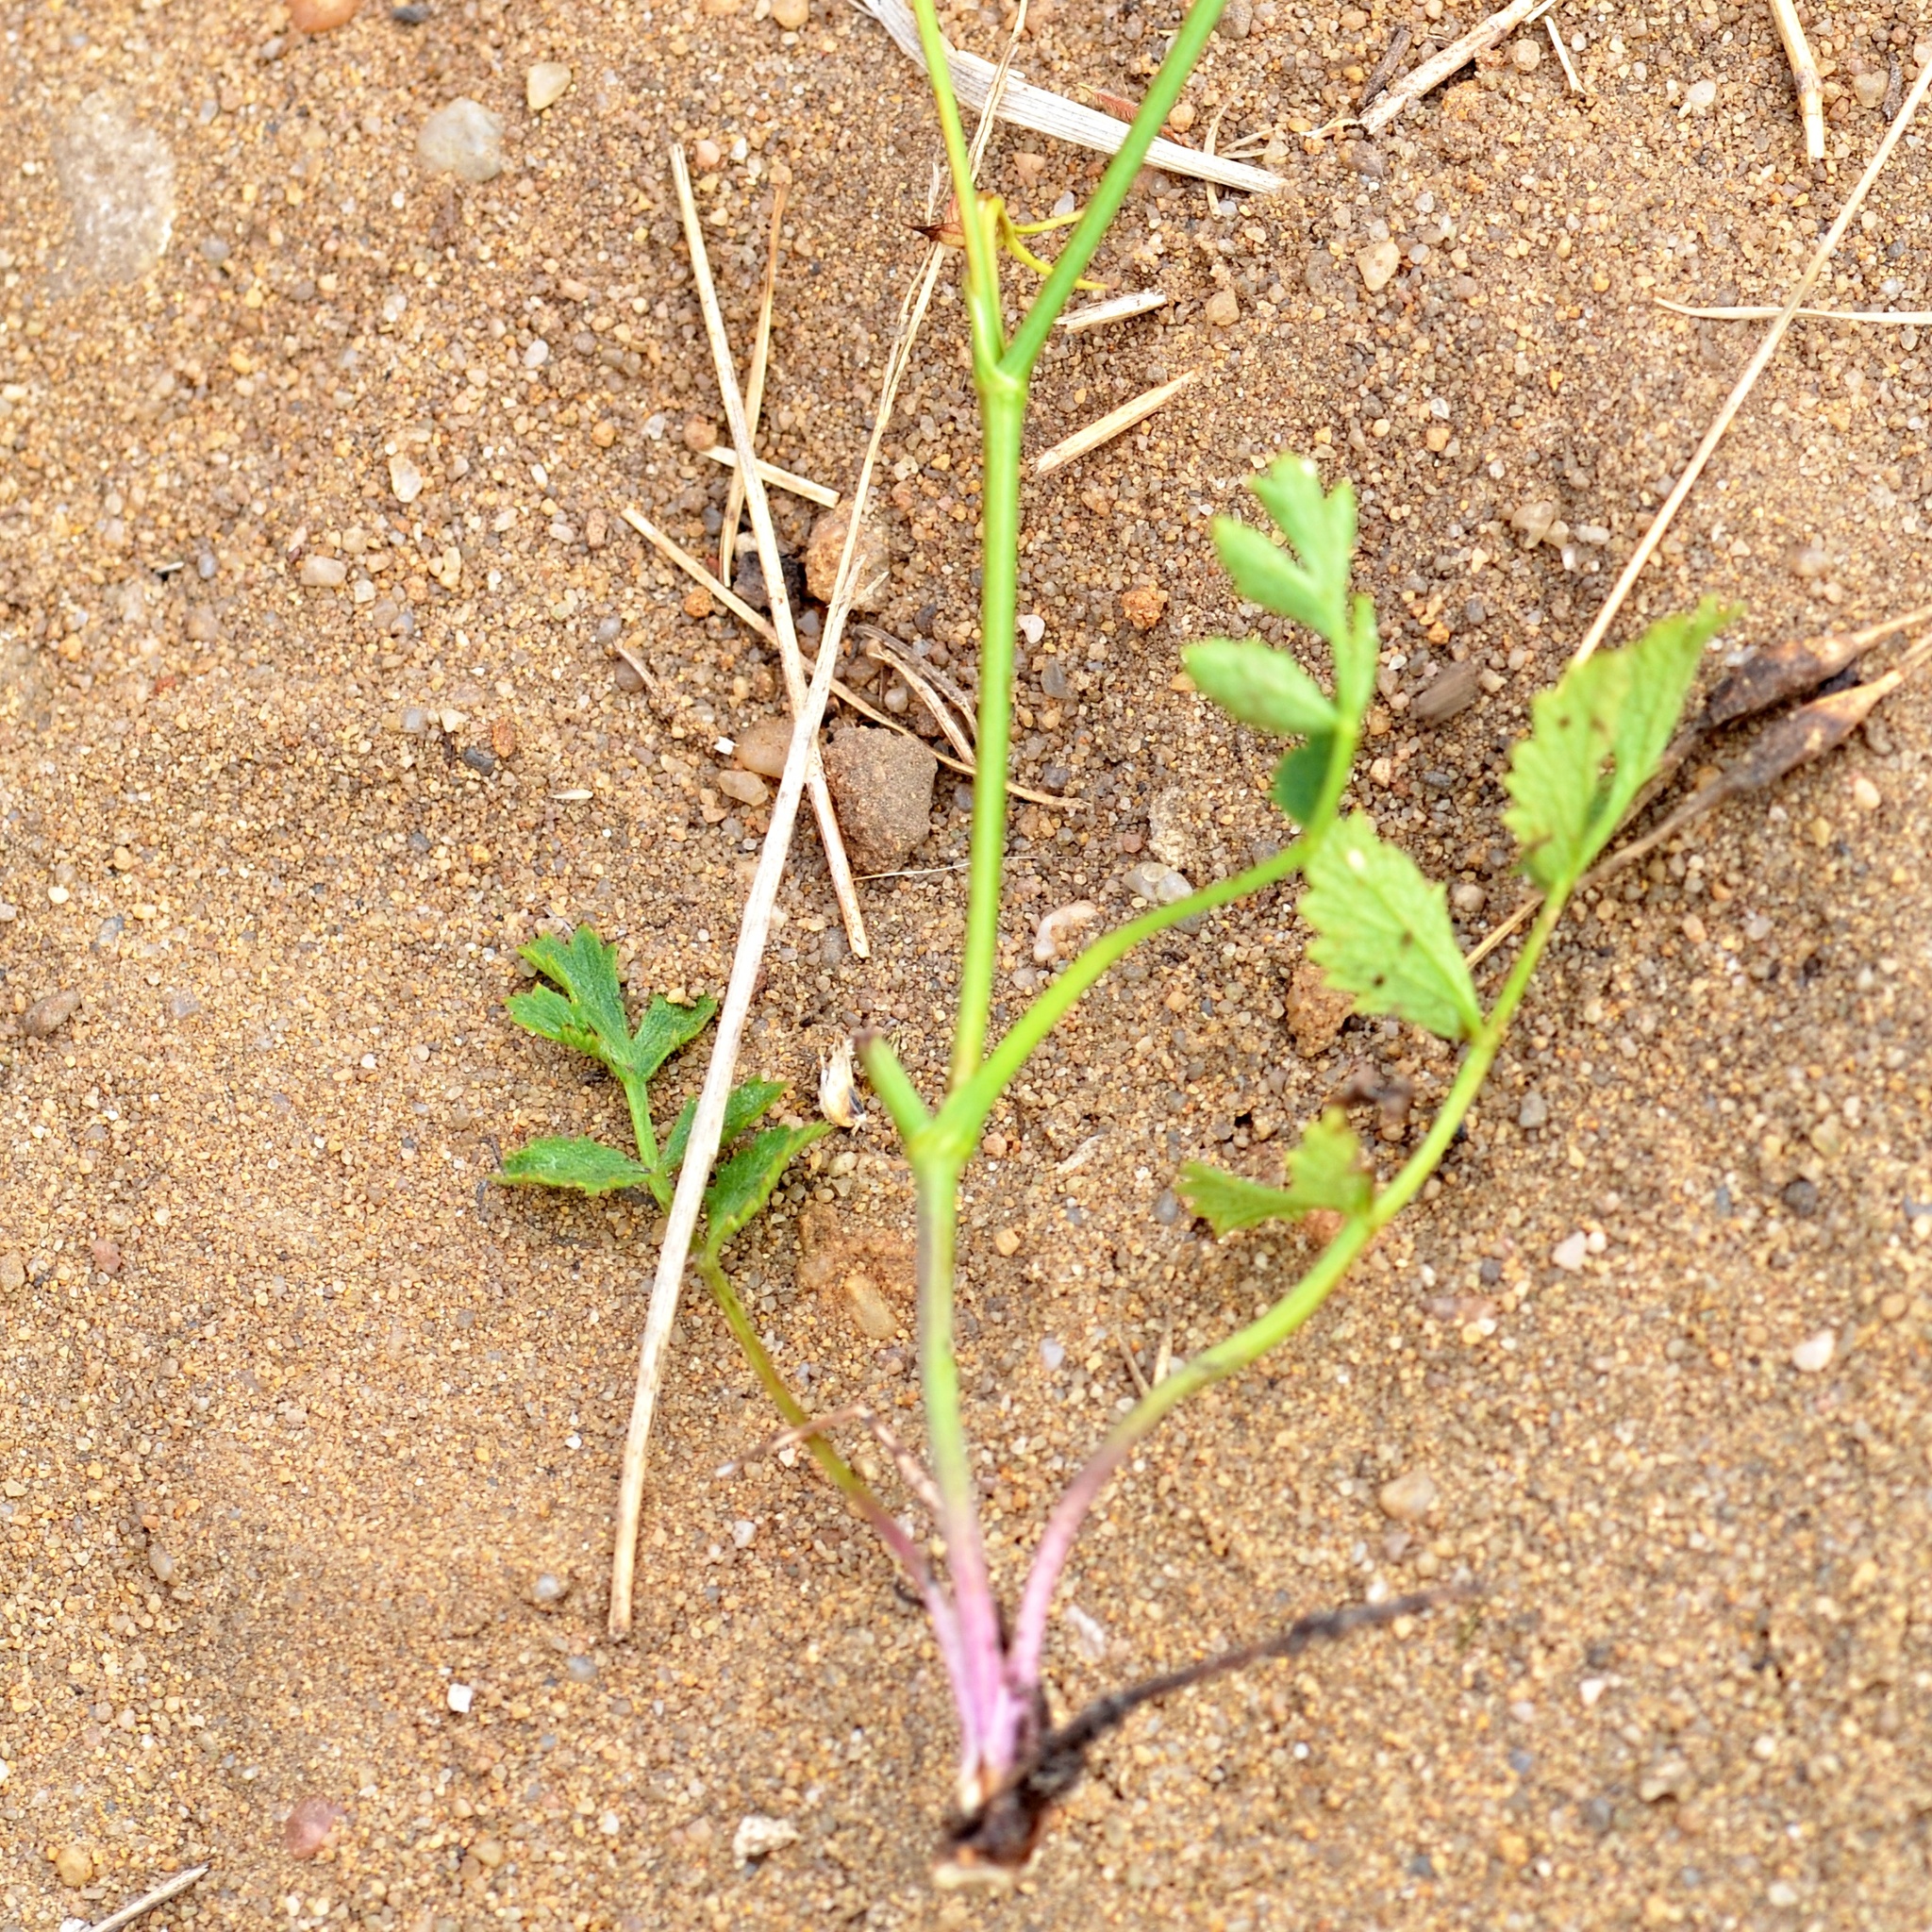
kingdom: Plantae
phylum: Tracheophyta
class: Magnoliopsida
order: Apiales
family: Apiaceae
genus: Pimpinella
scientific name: Pimpinella saxifraga
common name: Burnet-saxifrage
